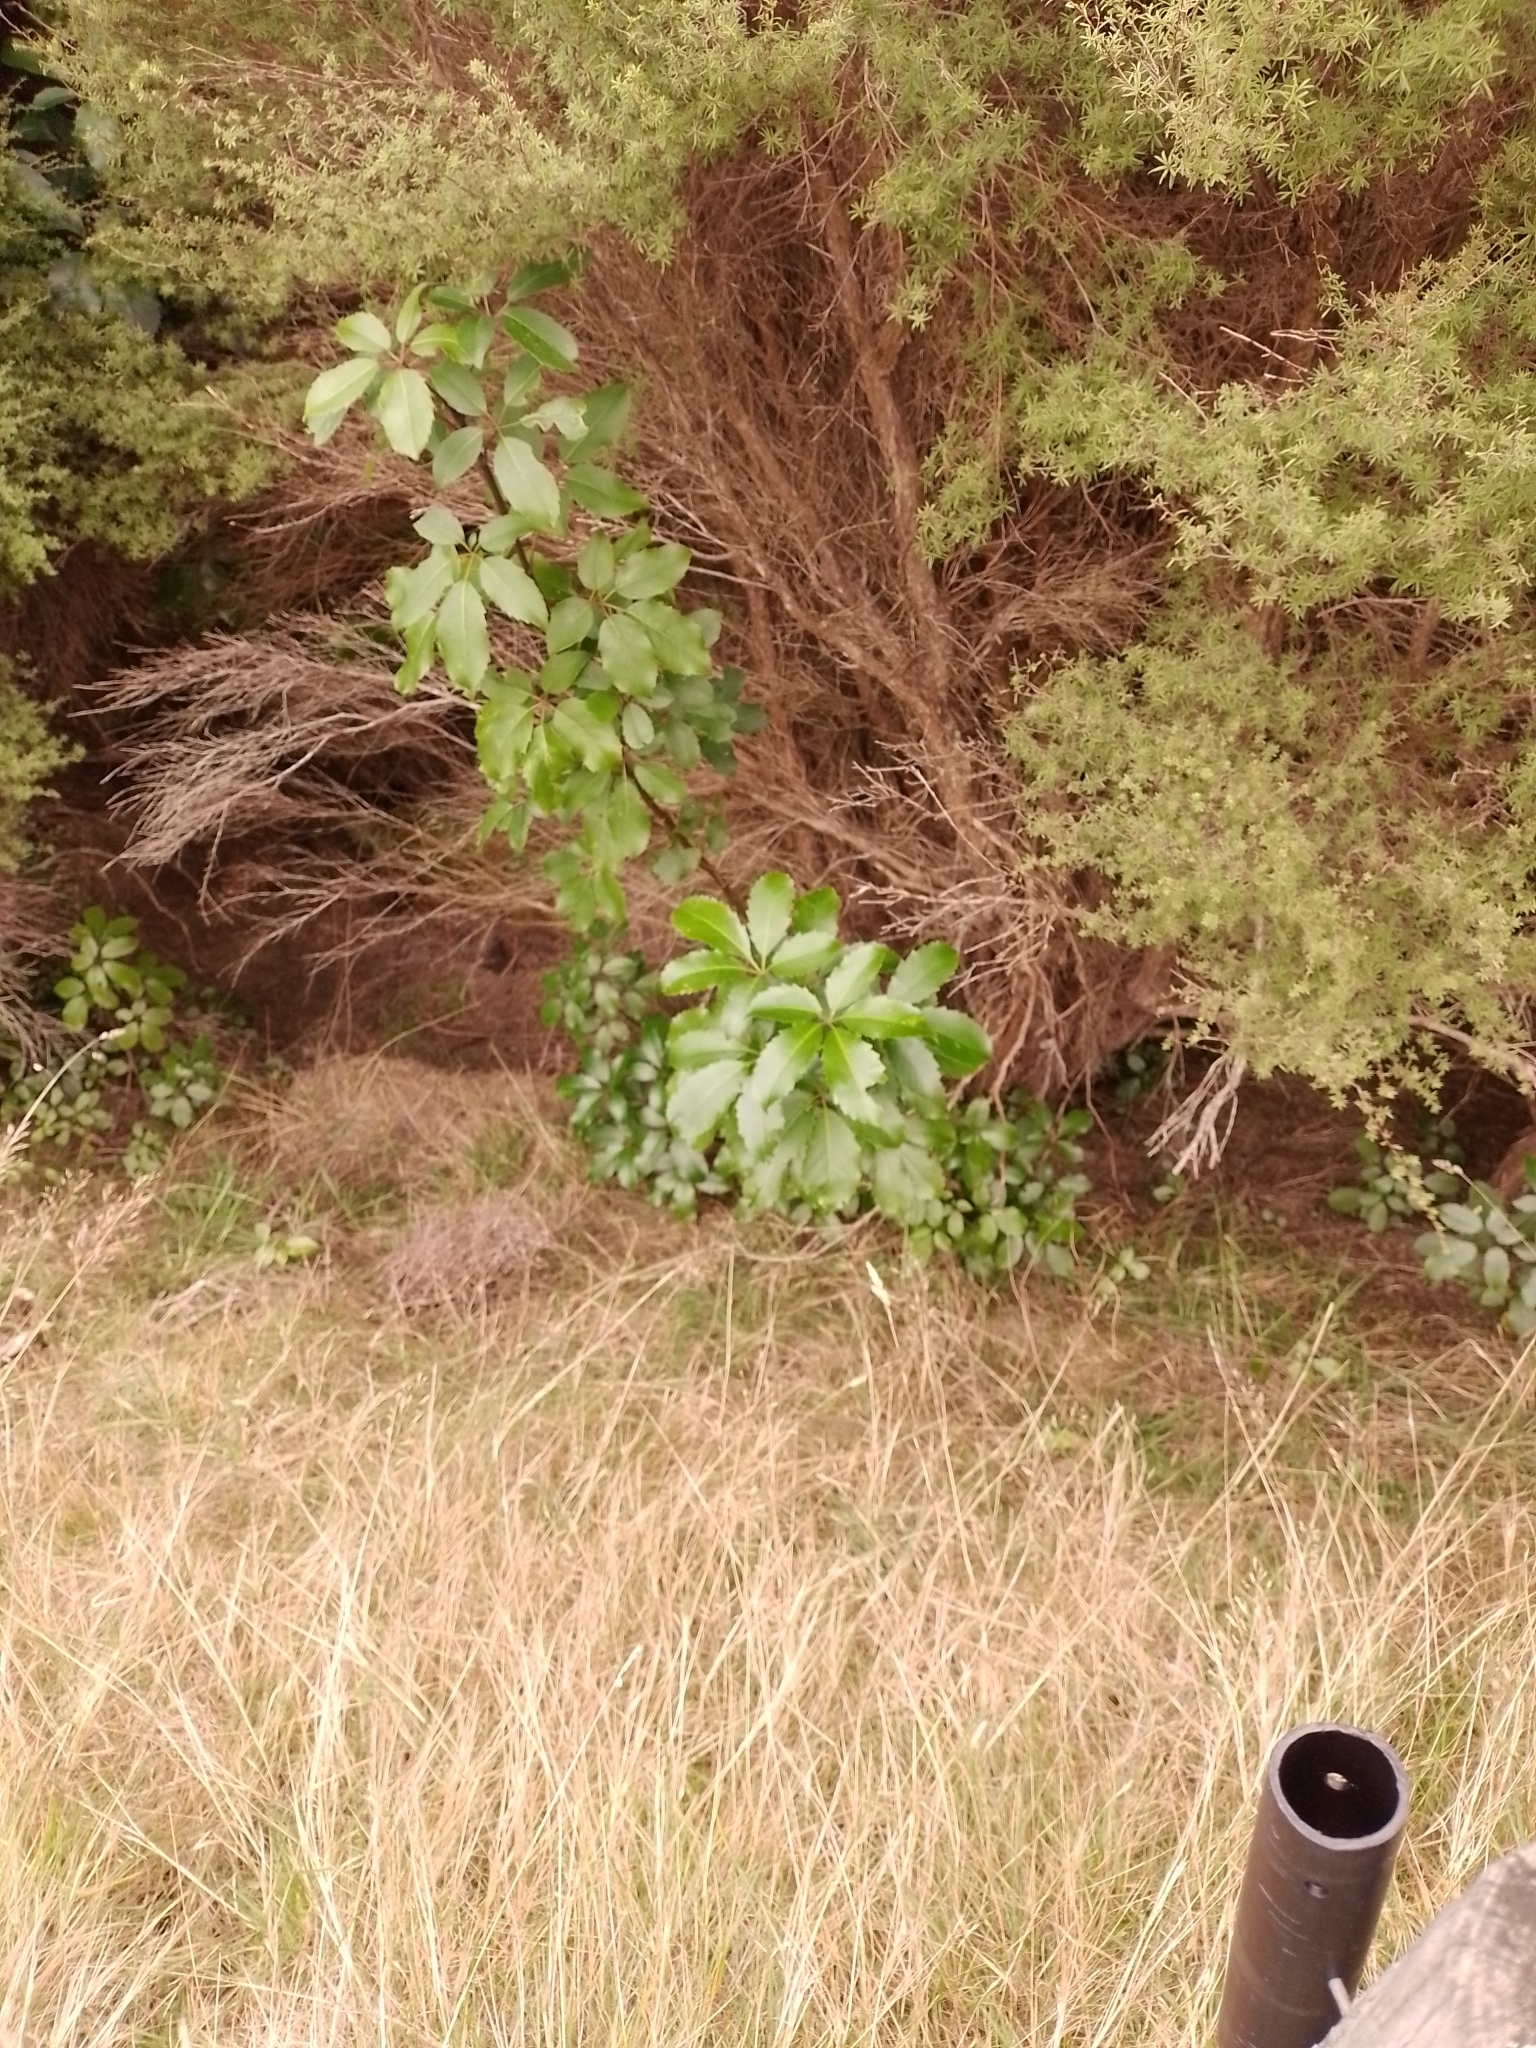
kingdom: Plantae
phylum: Tracheophyta
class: Magnoliopsida
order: Apiales
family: Araliaceae
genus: Neopanax
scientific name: Neopanax arboreus
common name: Five-fingers
